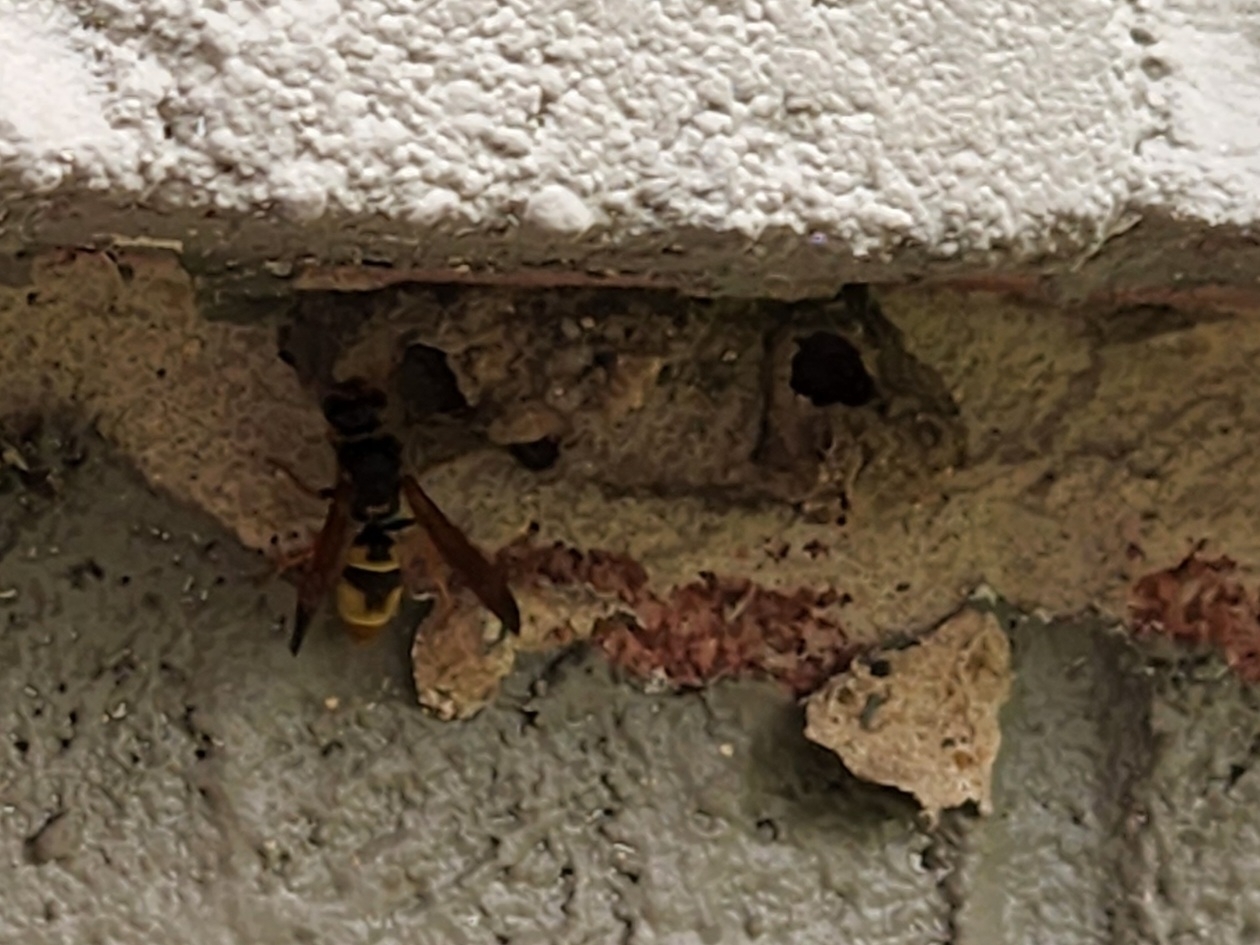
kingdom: Animalia
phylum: Arthropoda
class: Insecta
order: Hymenoptera
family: Vespidae
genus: Ancistrocerus
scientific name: Ancistrocerus
